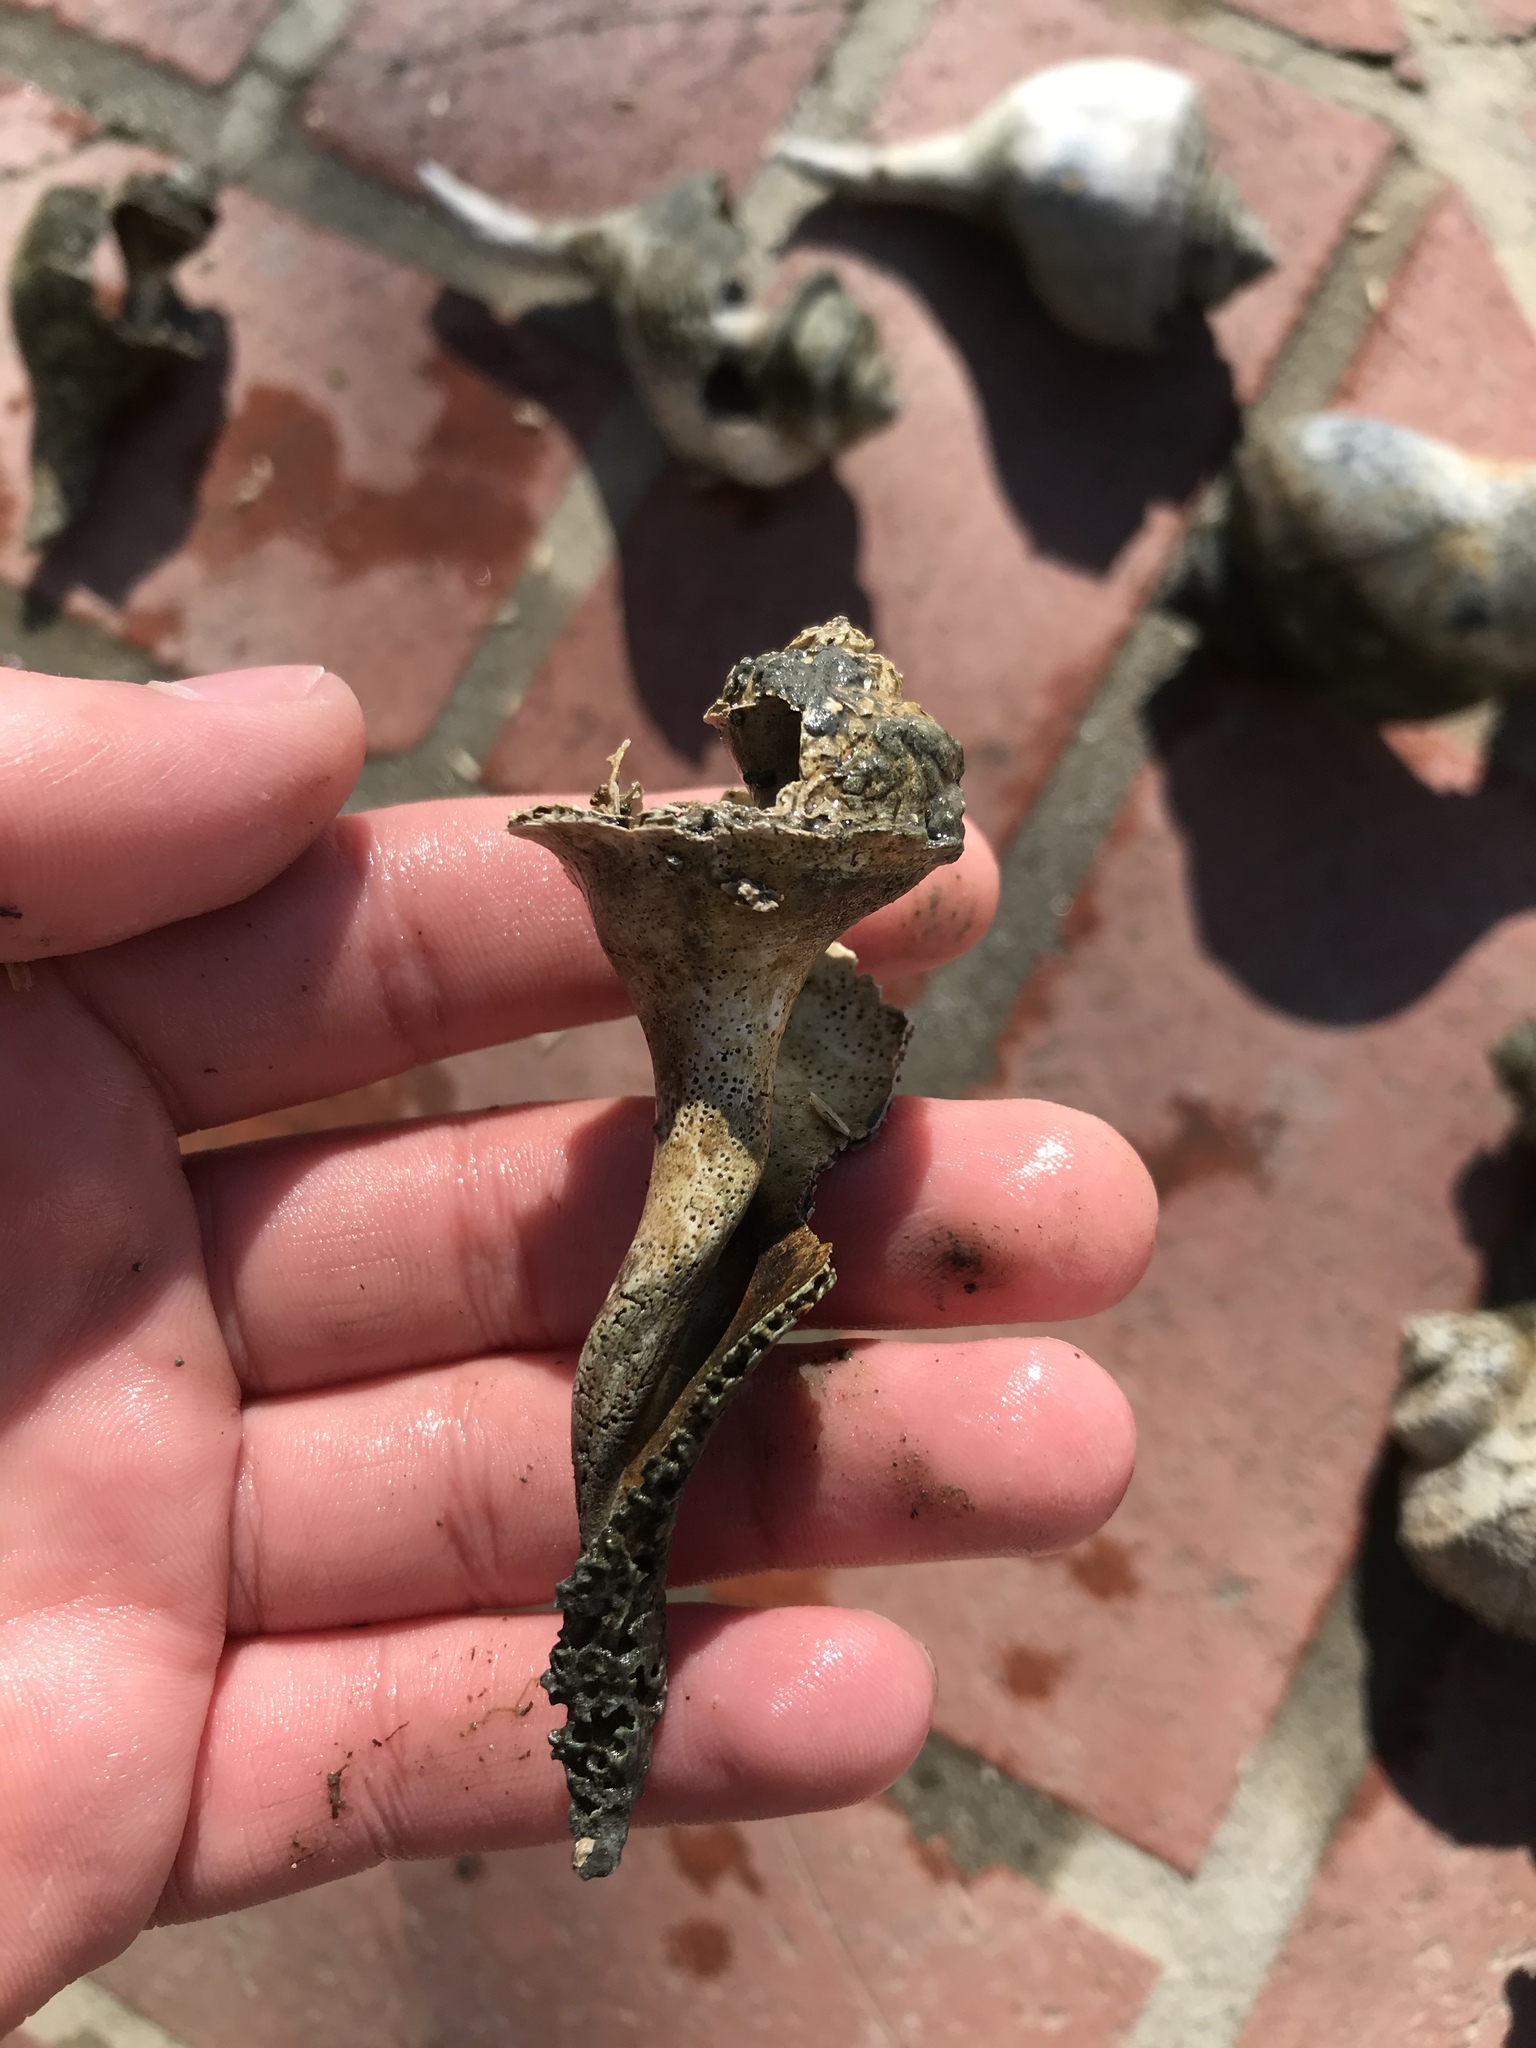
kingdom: Animalia
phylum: Mollusca
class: Gastropoda
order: Neogastropoda
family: Busyconidae
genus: Busycotypus
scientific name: Busycotypus canaliculatus
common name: Channeled whelk
